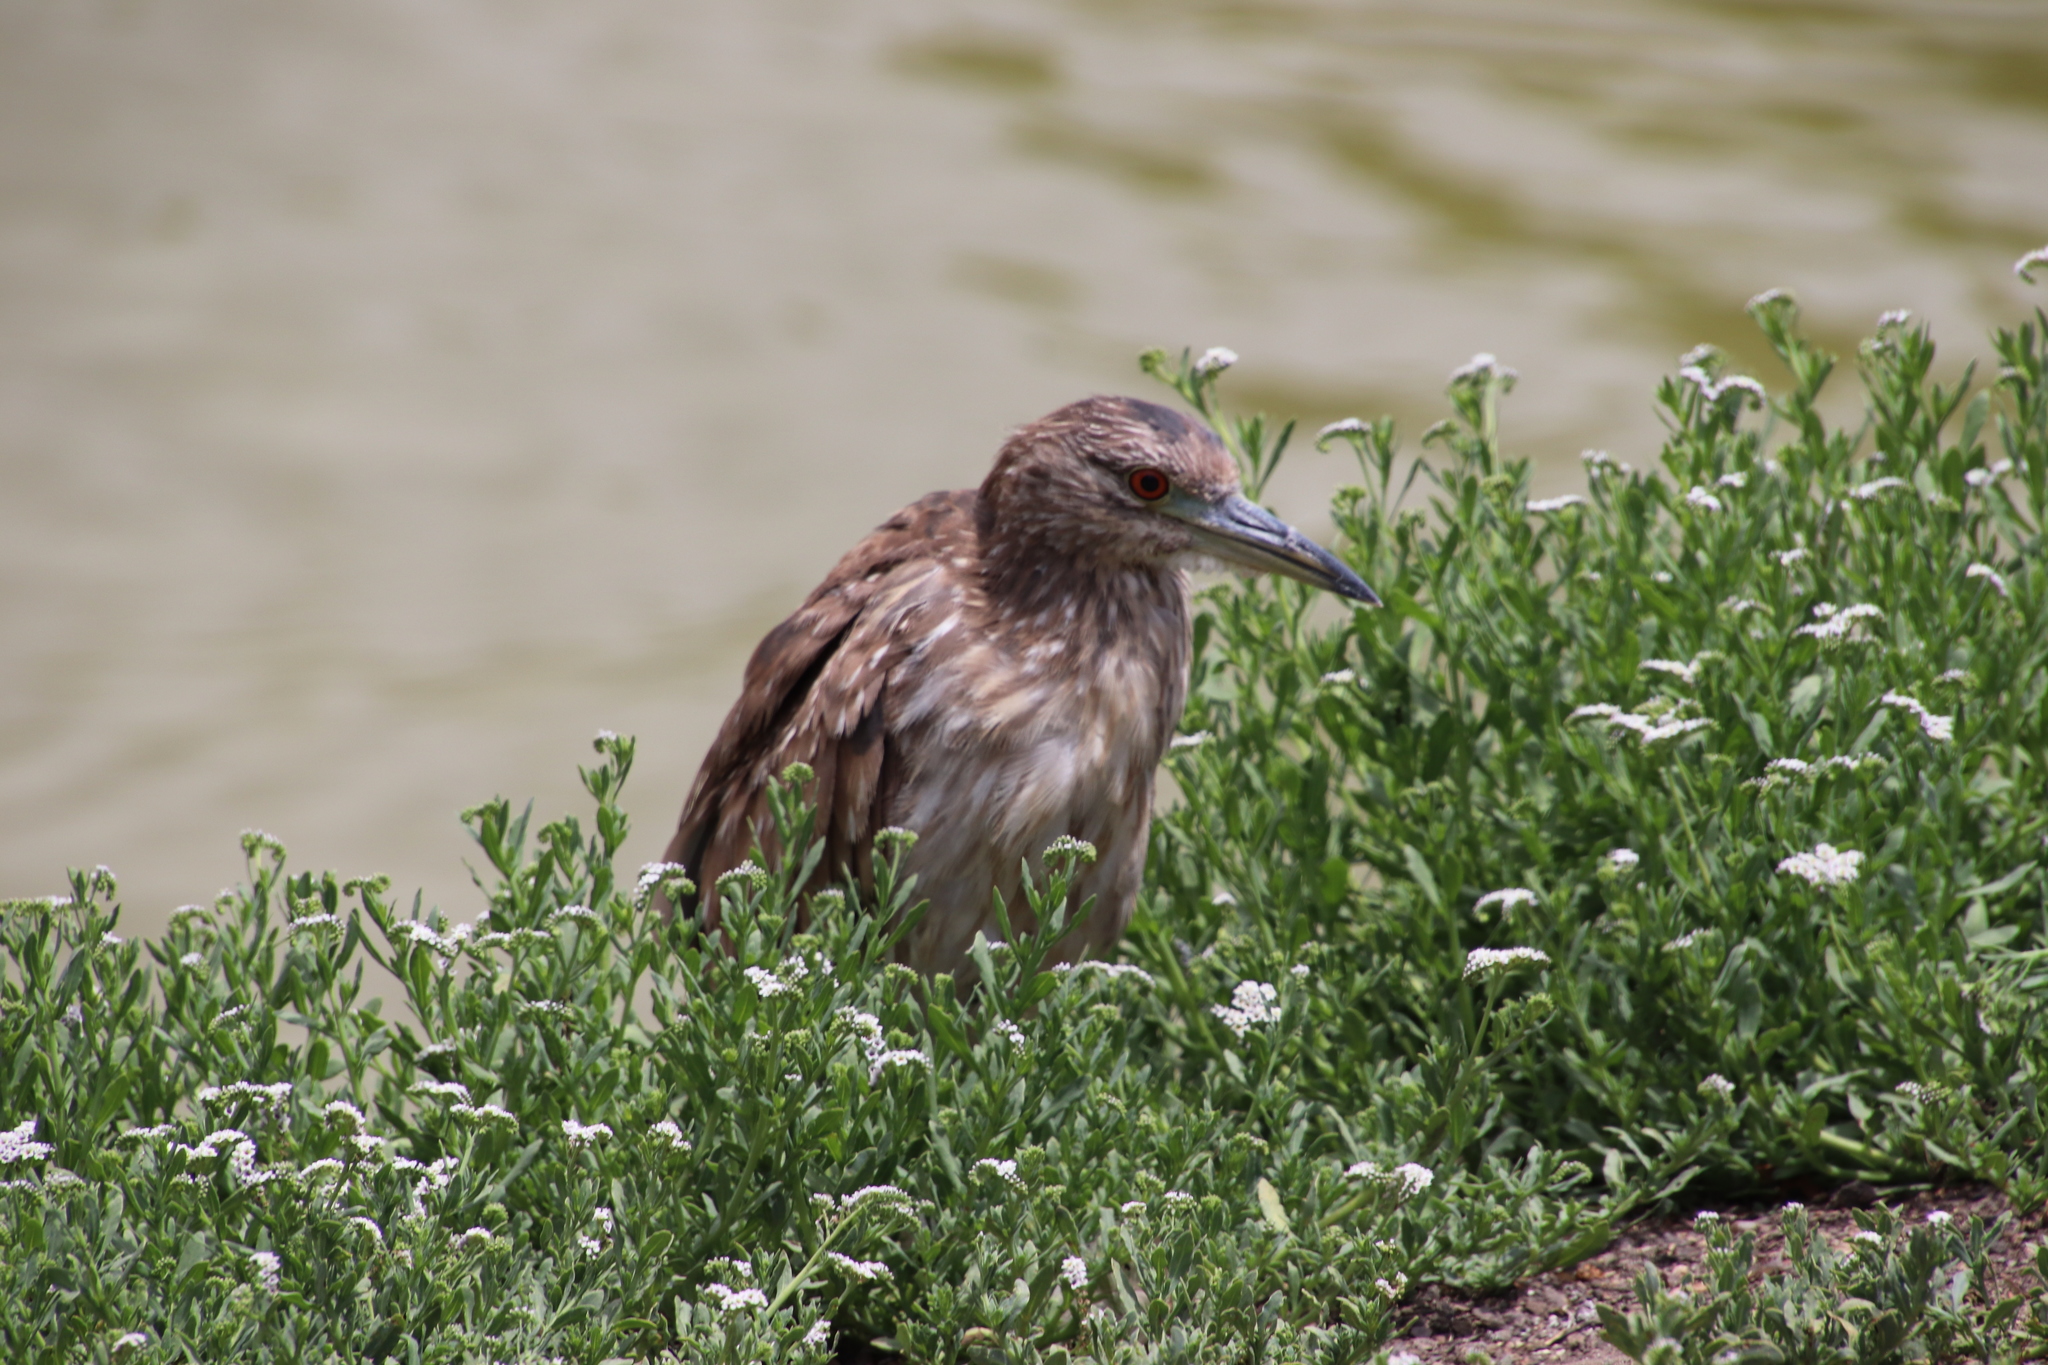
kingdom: Animalia
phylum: Chordata
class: Aves
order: Pelecaniformes
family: Ardeidae
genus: Nycticorax
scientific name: Nycticorax nycticorax
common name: Black-crowned night heron
